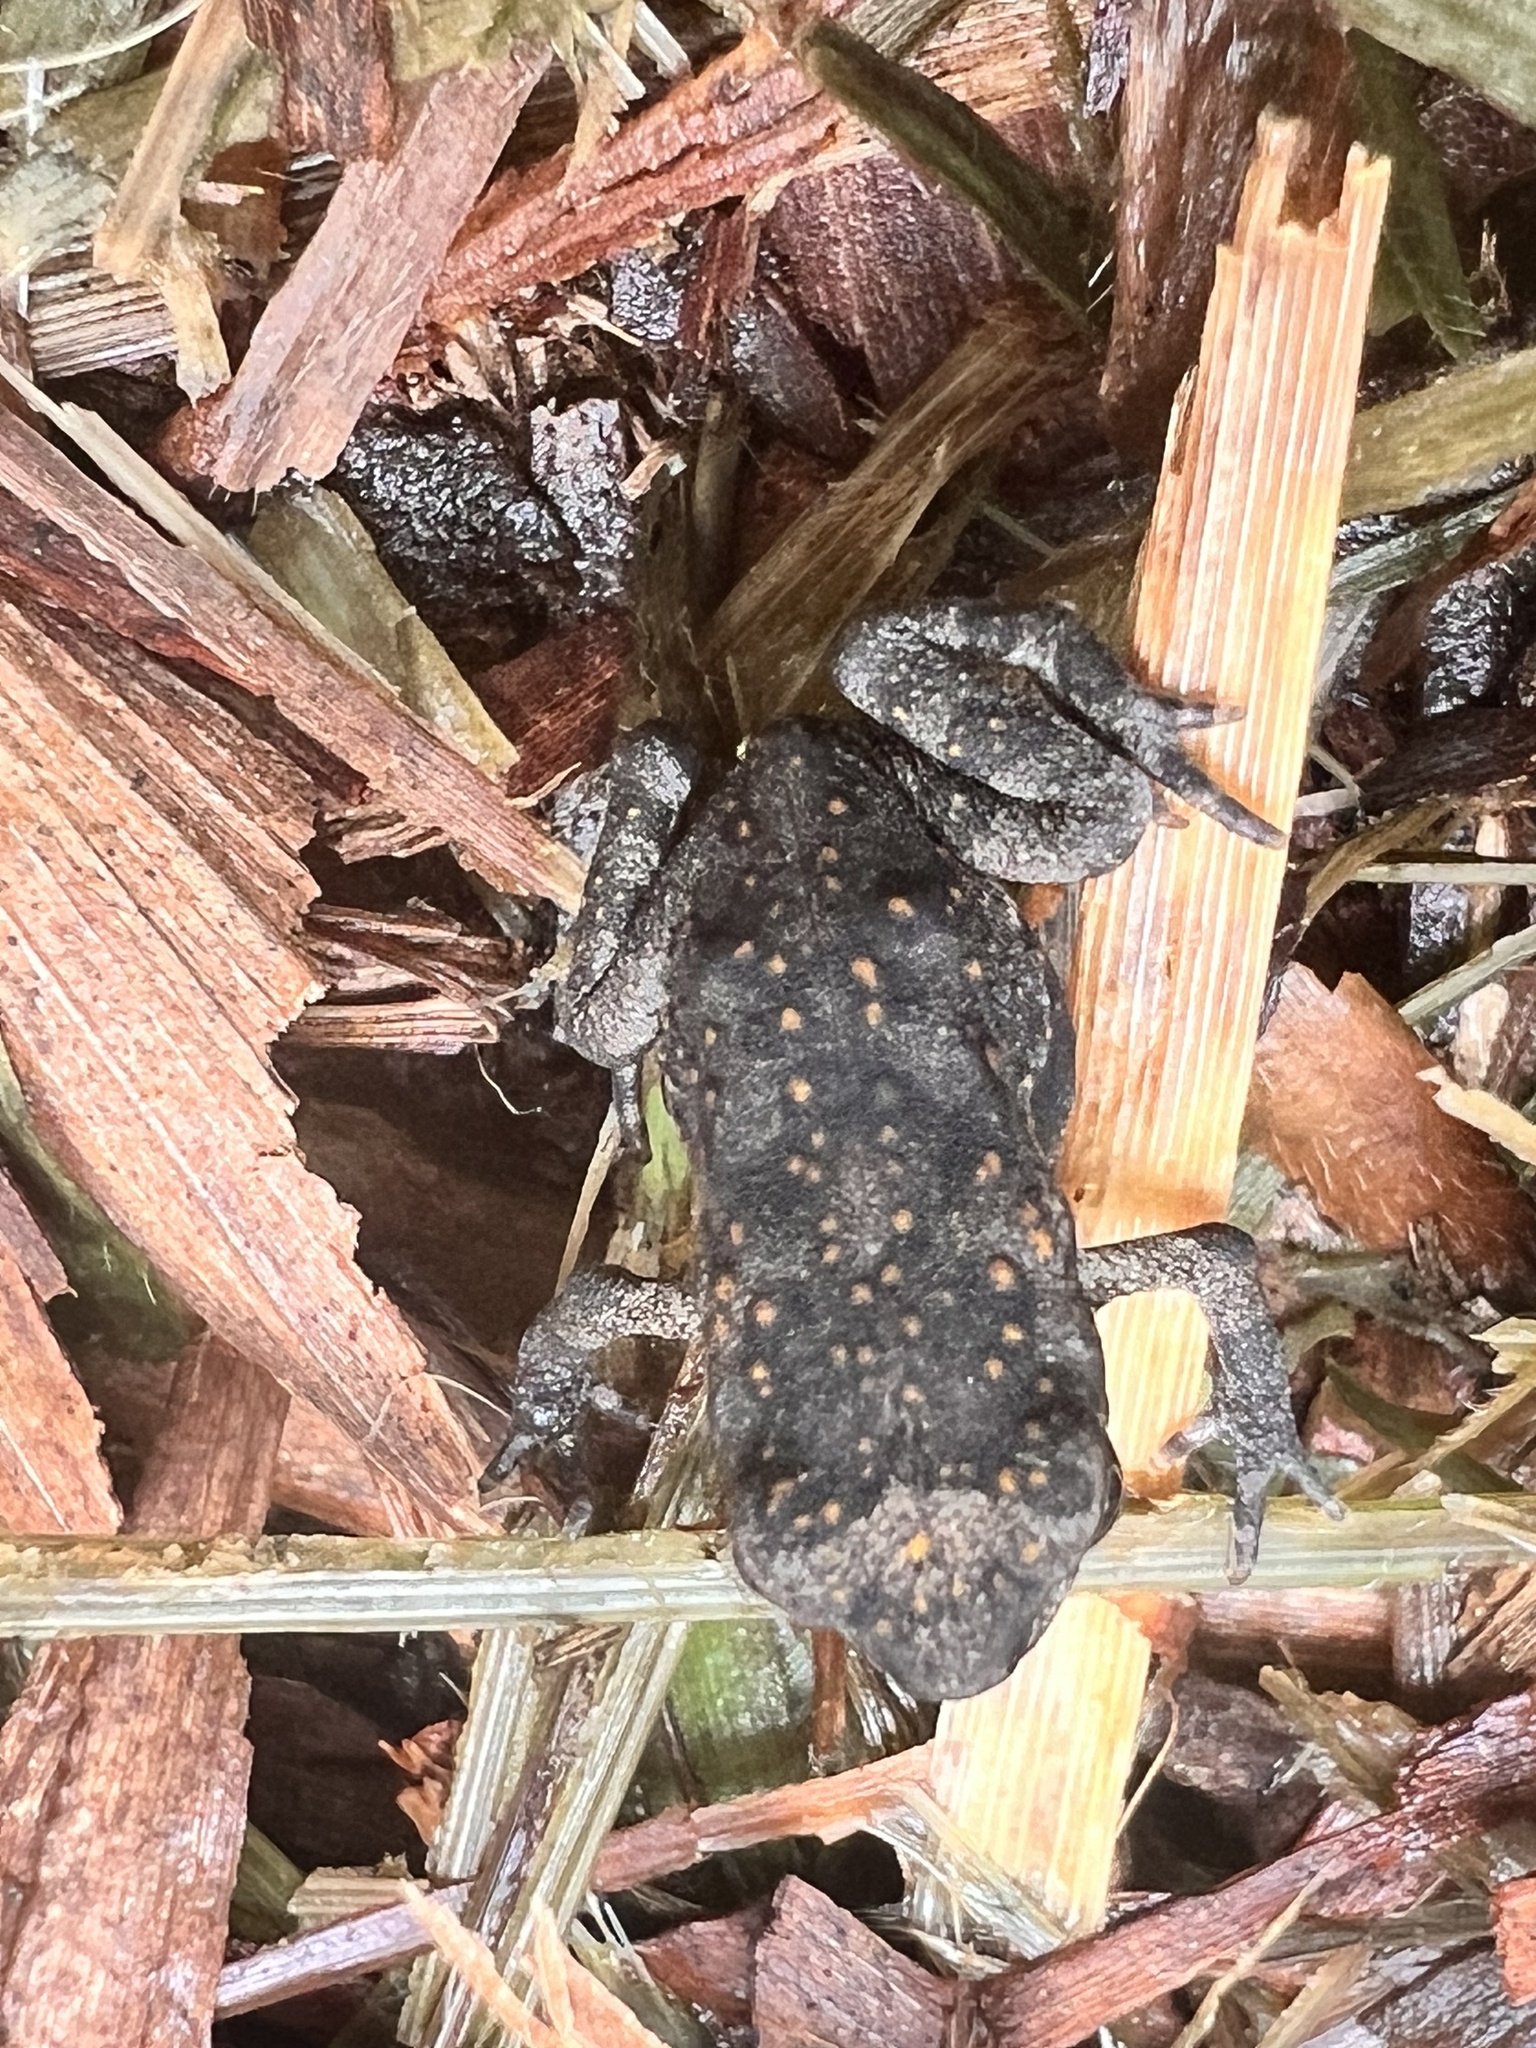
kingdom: Animalia
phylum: Chordata
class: Amphibia
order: Anura
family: Bufonidae
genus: Rhinella
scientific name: Rhinella marina
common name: Cane toad
